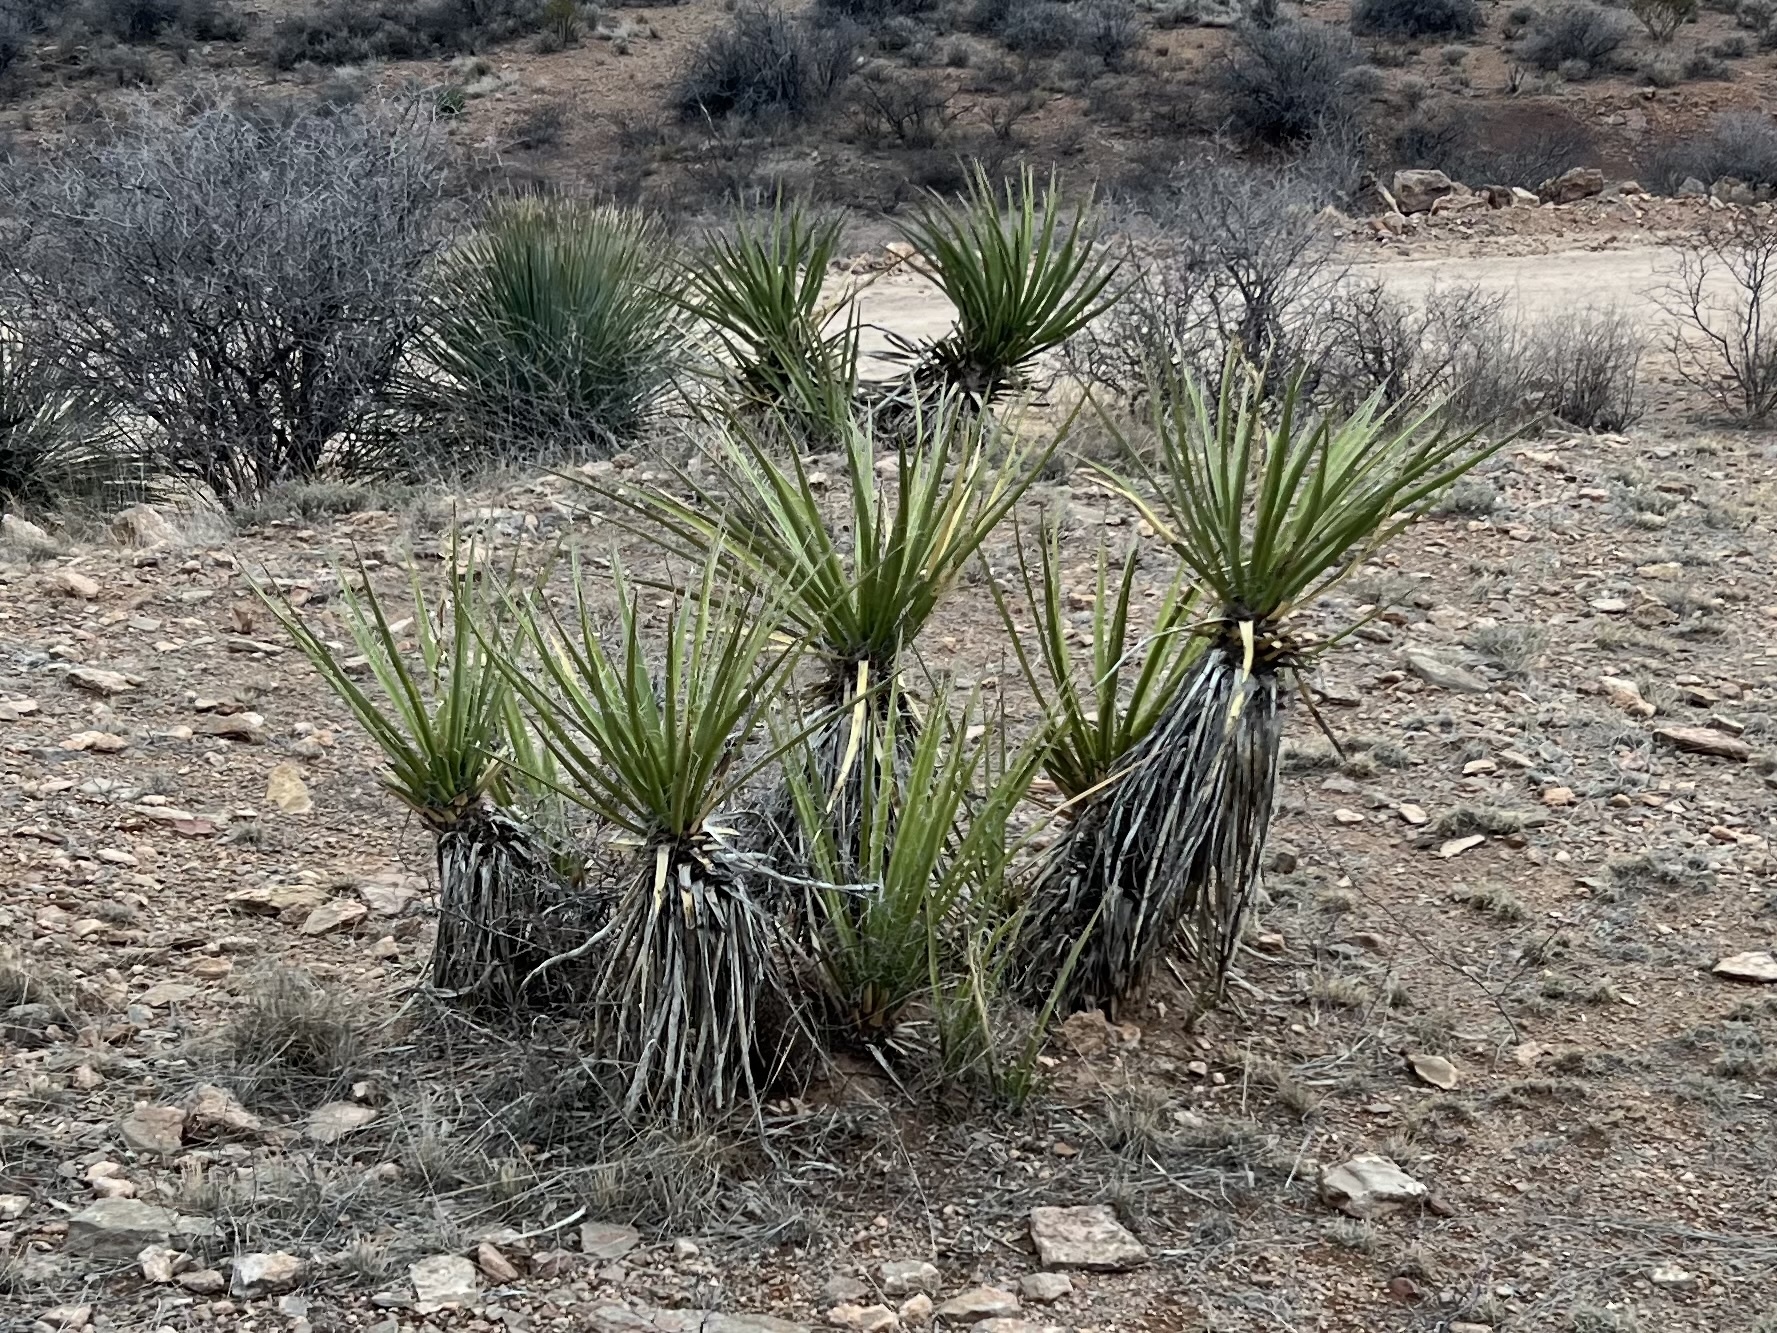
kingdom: Plantae
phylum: Tracheophyta
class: Liliopsida
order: Asparagales
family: Asparagaceae
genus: Yucca
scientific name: Yucca baccata
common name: Banana yucca
